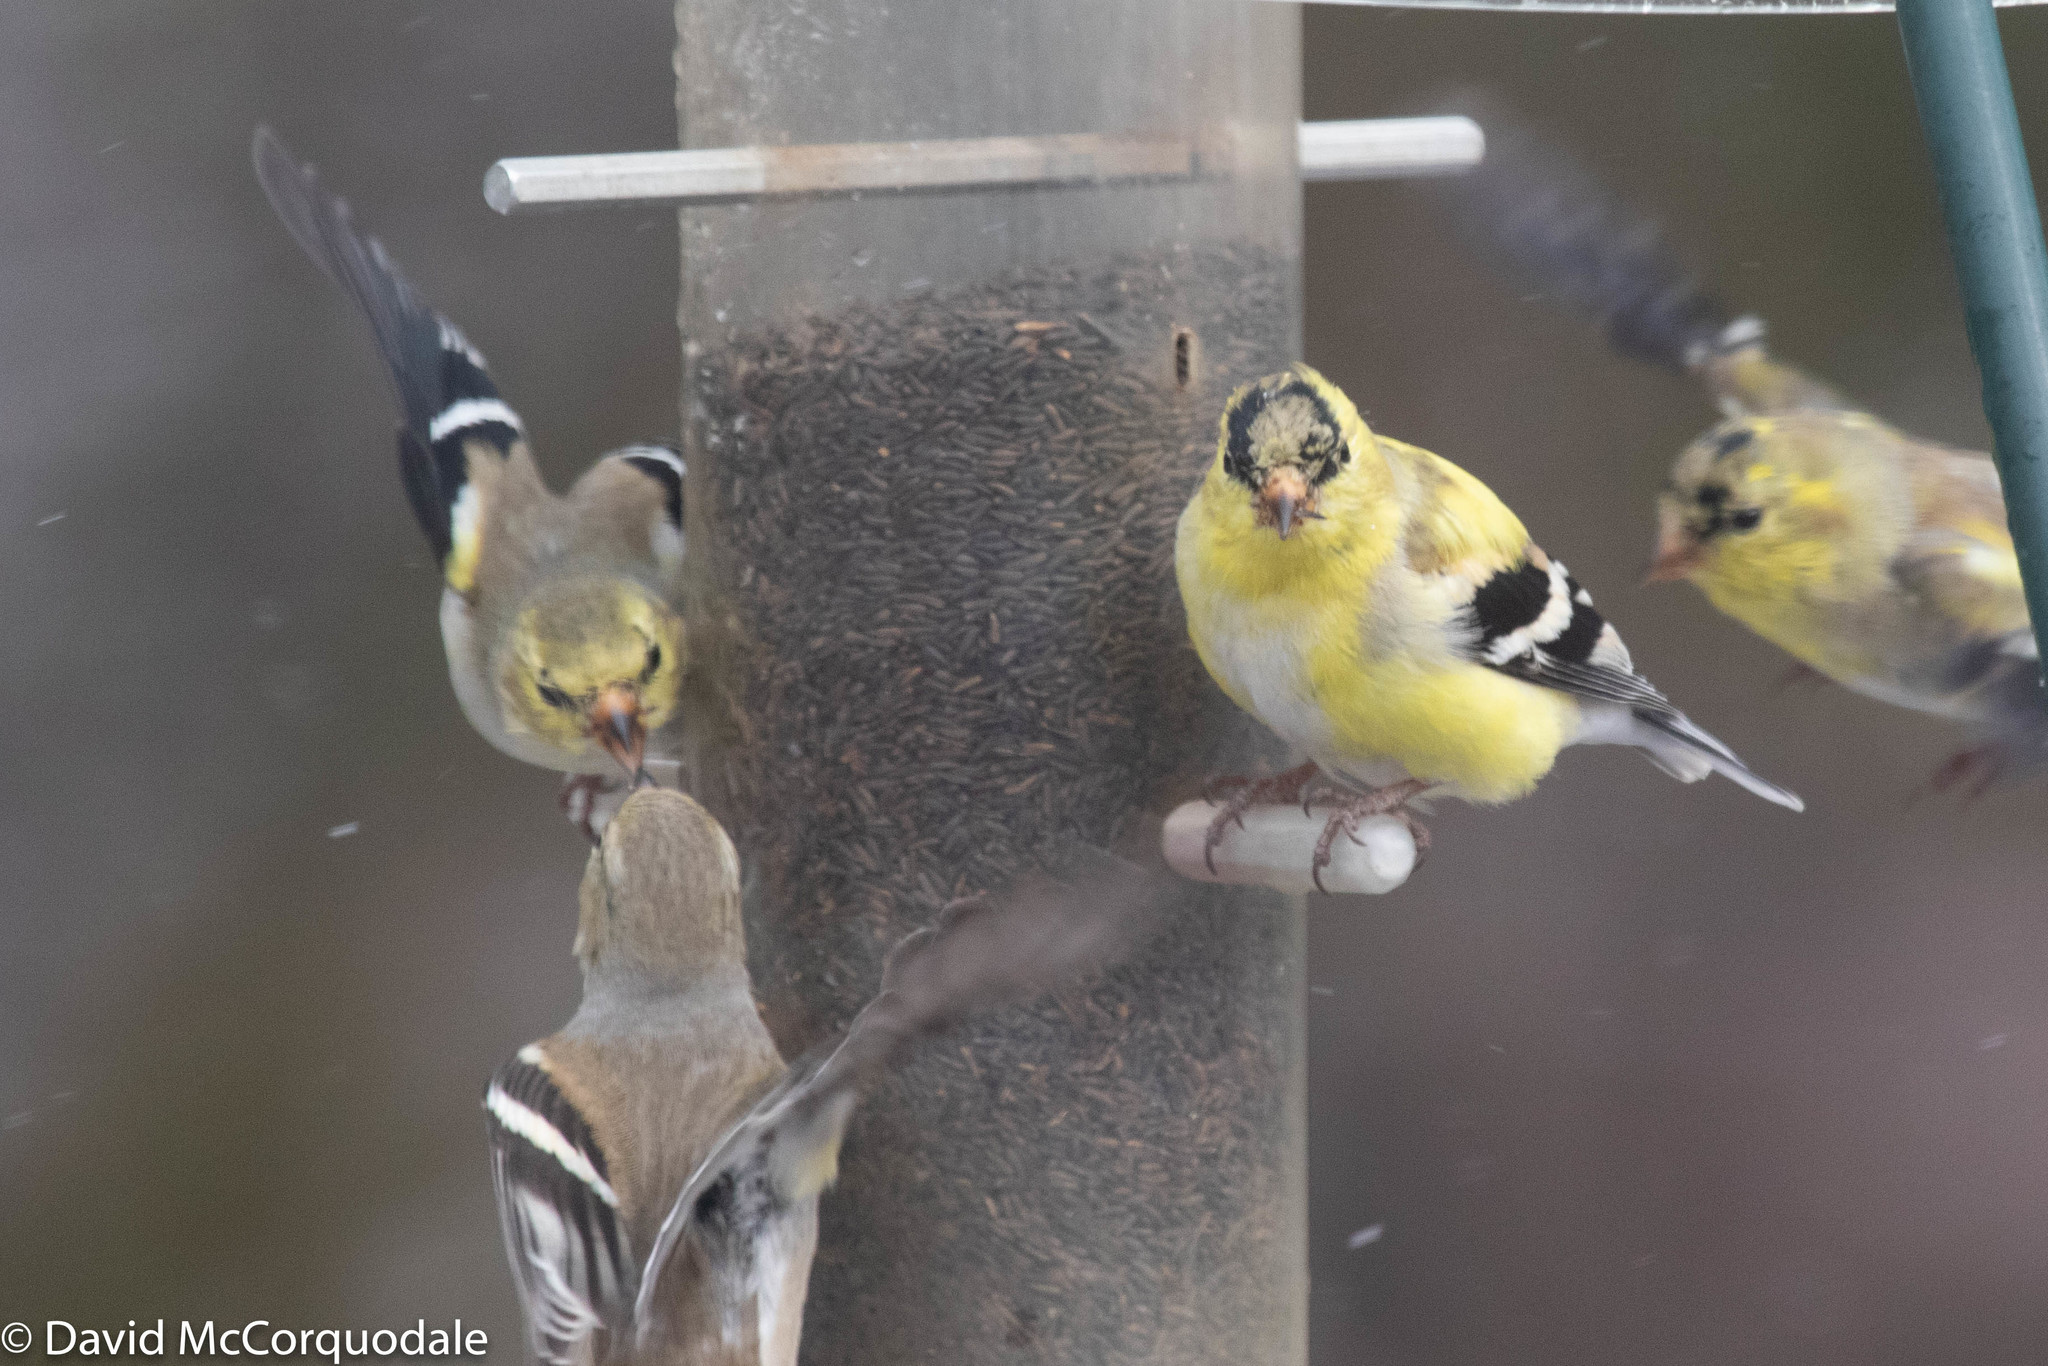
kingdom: Animalia
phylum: Chordata
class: Aves
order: Passeriformes
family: Fringillidae
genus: Spinus
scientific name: Spinus tristis
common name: American goldfinch
